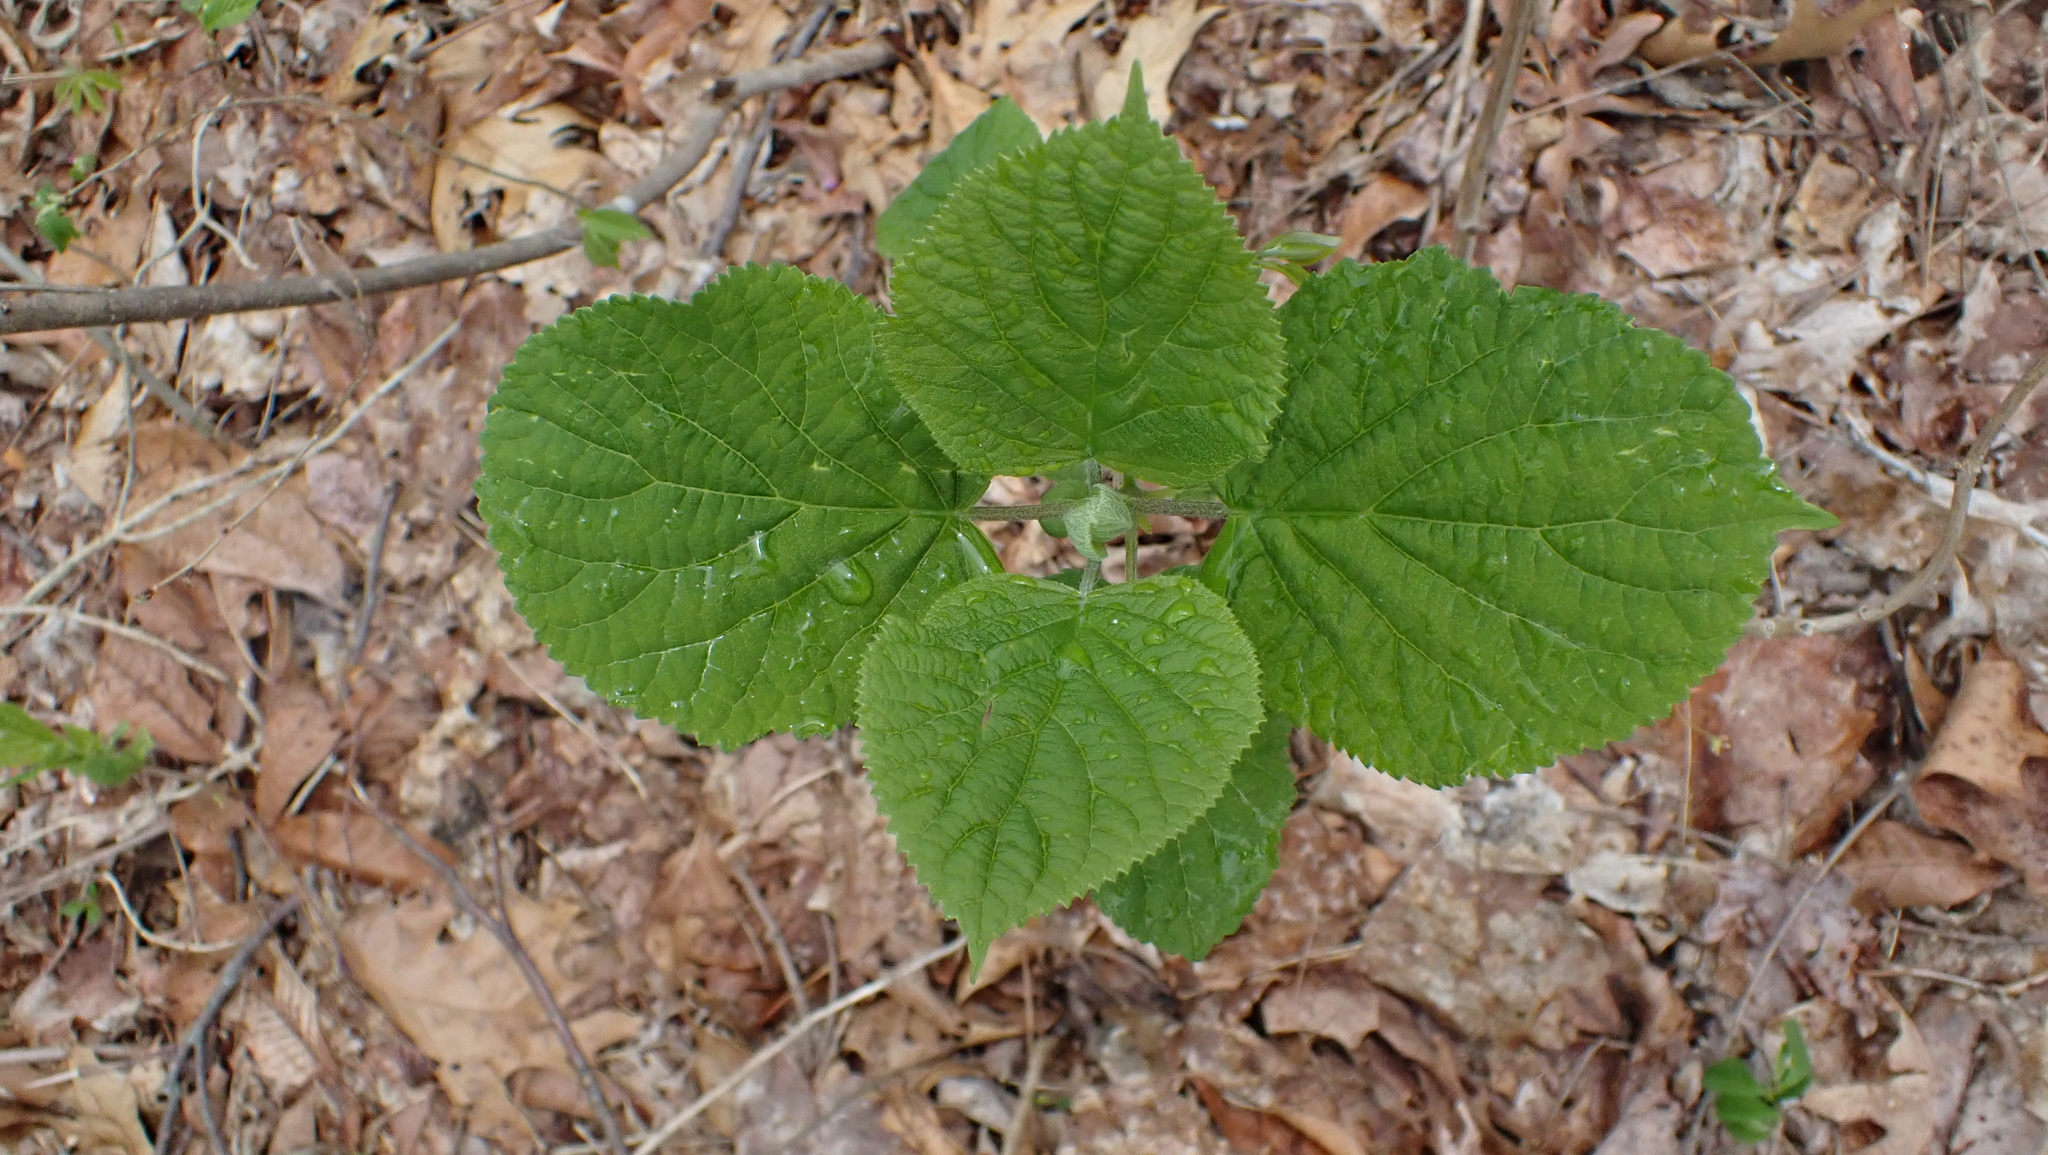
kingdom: Plantae
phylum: Tracheophyta
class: Magnoliopsida
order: Cornales
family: Hydrangeaceae
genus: Hydrangea
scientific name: Hydrangea arborescens
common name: Sevenbark
